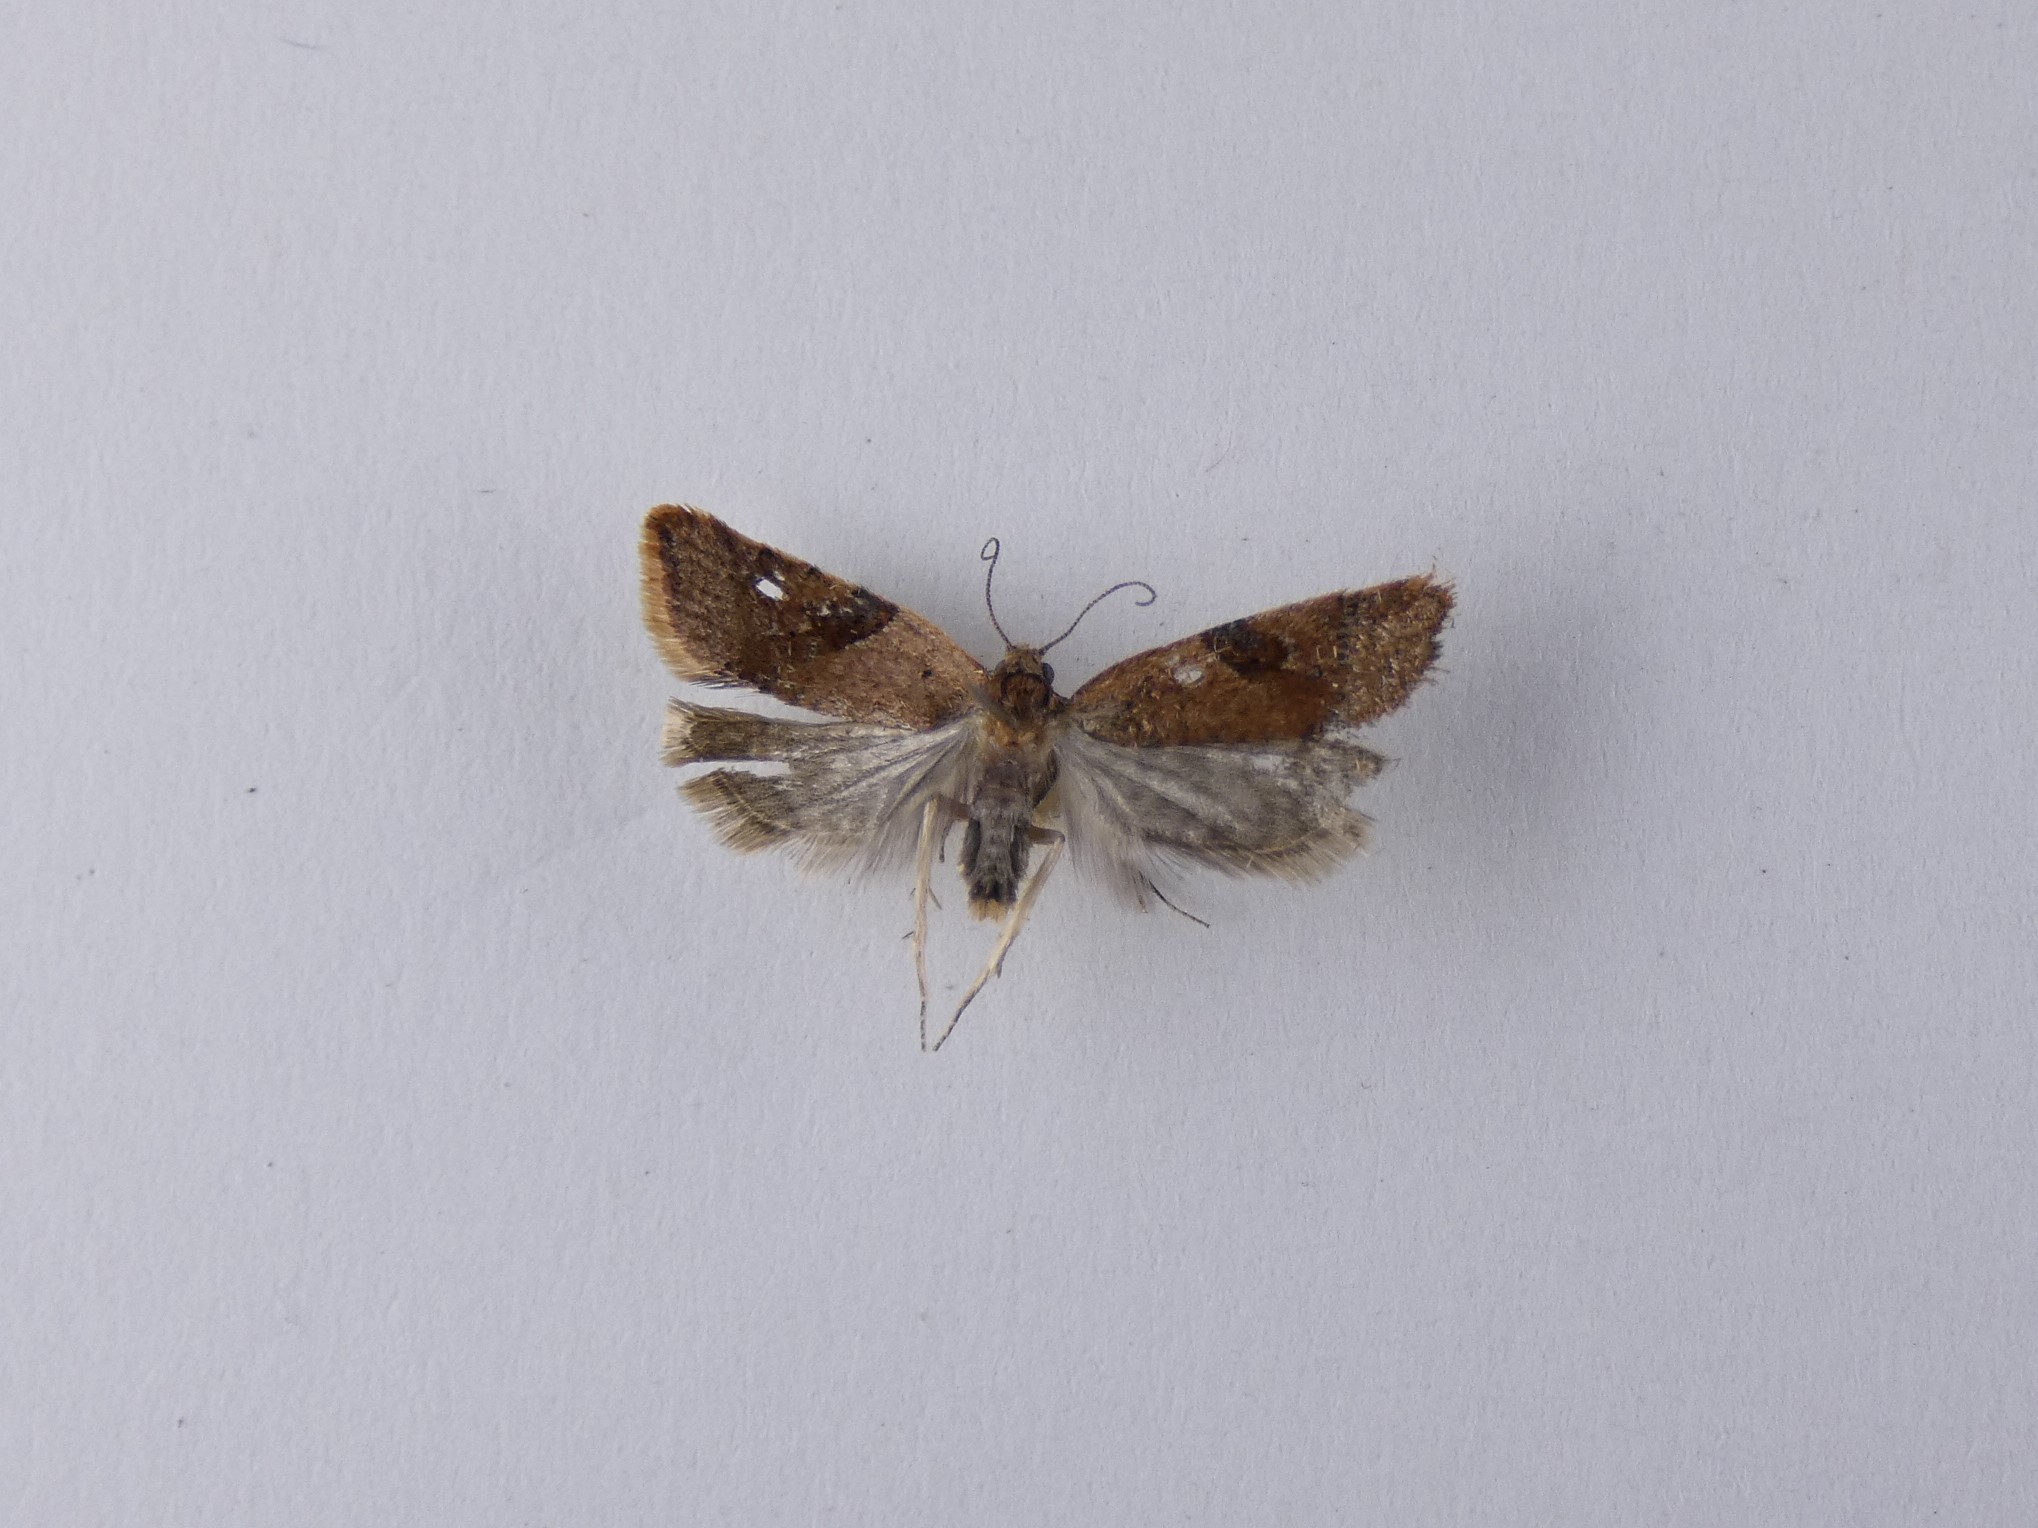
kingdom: Animalia
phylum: Arthropoda
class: Insecta
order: Lepidoptera
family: Tortricidae
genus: Capua
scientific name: Capua semiferana
